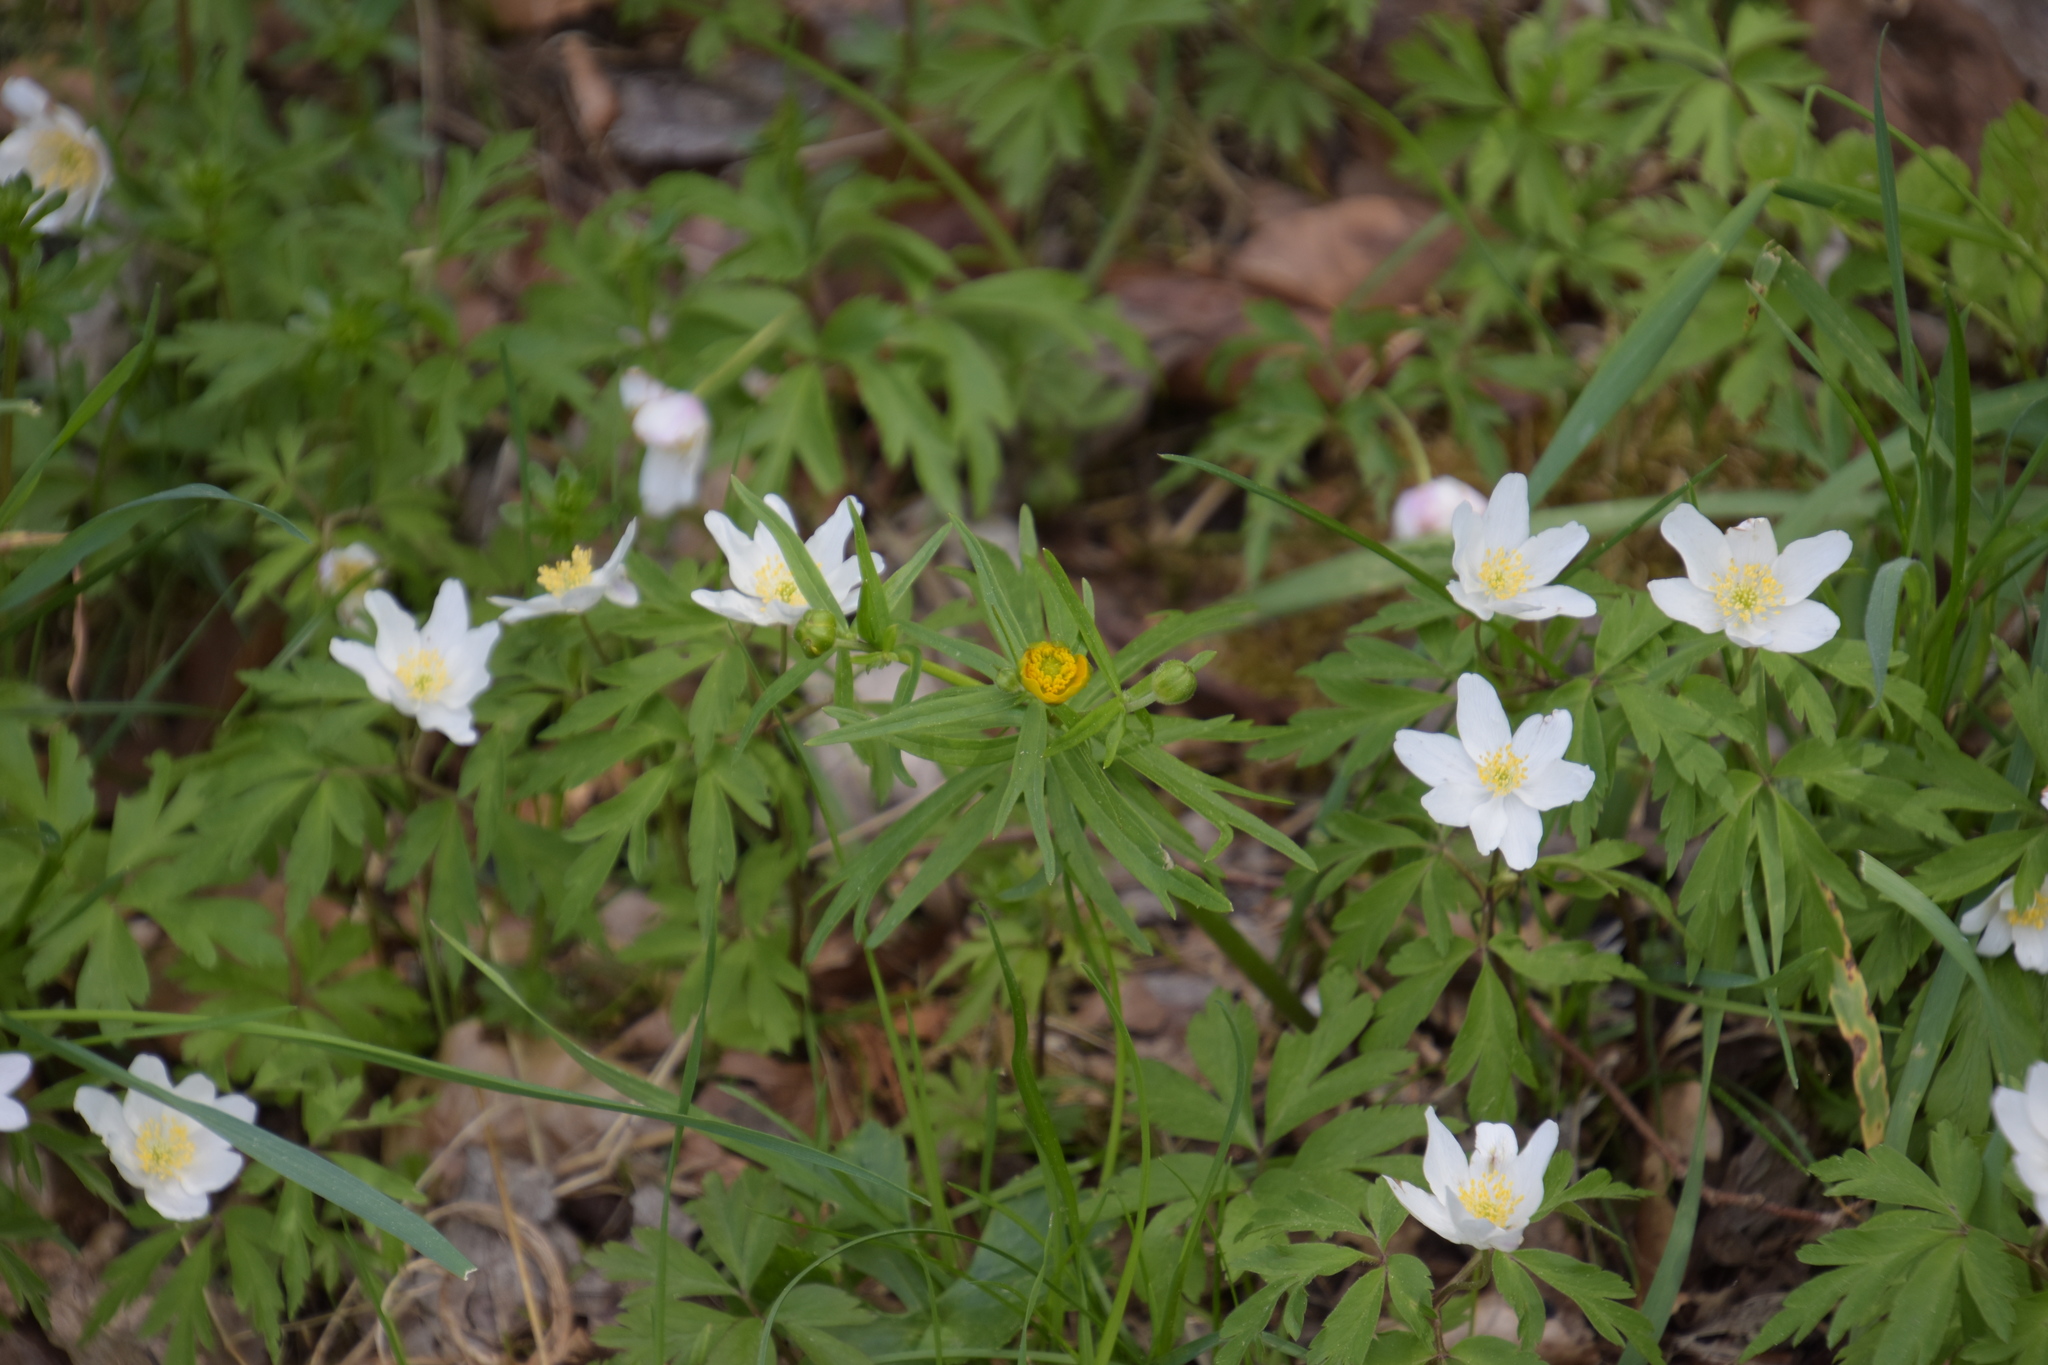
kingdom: Plantae
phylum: Tracheophyta
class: Magnoliopsida
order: Ranunculales
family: Ranunculaceae
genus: Anemone
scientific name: Anemone nemorosa
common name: Wood anemone
